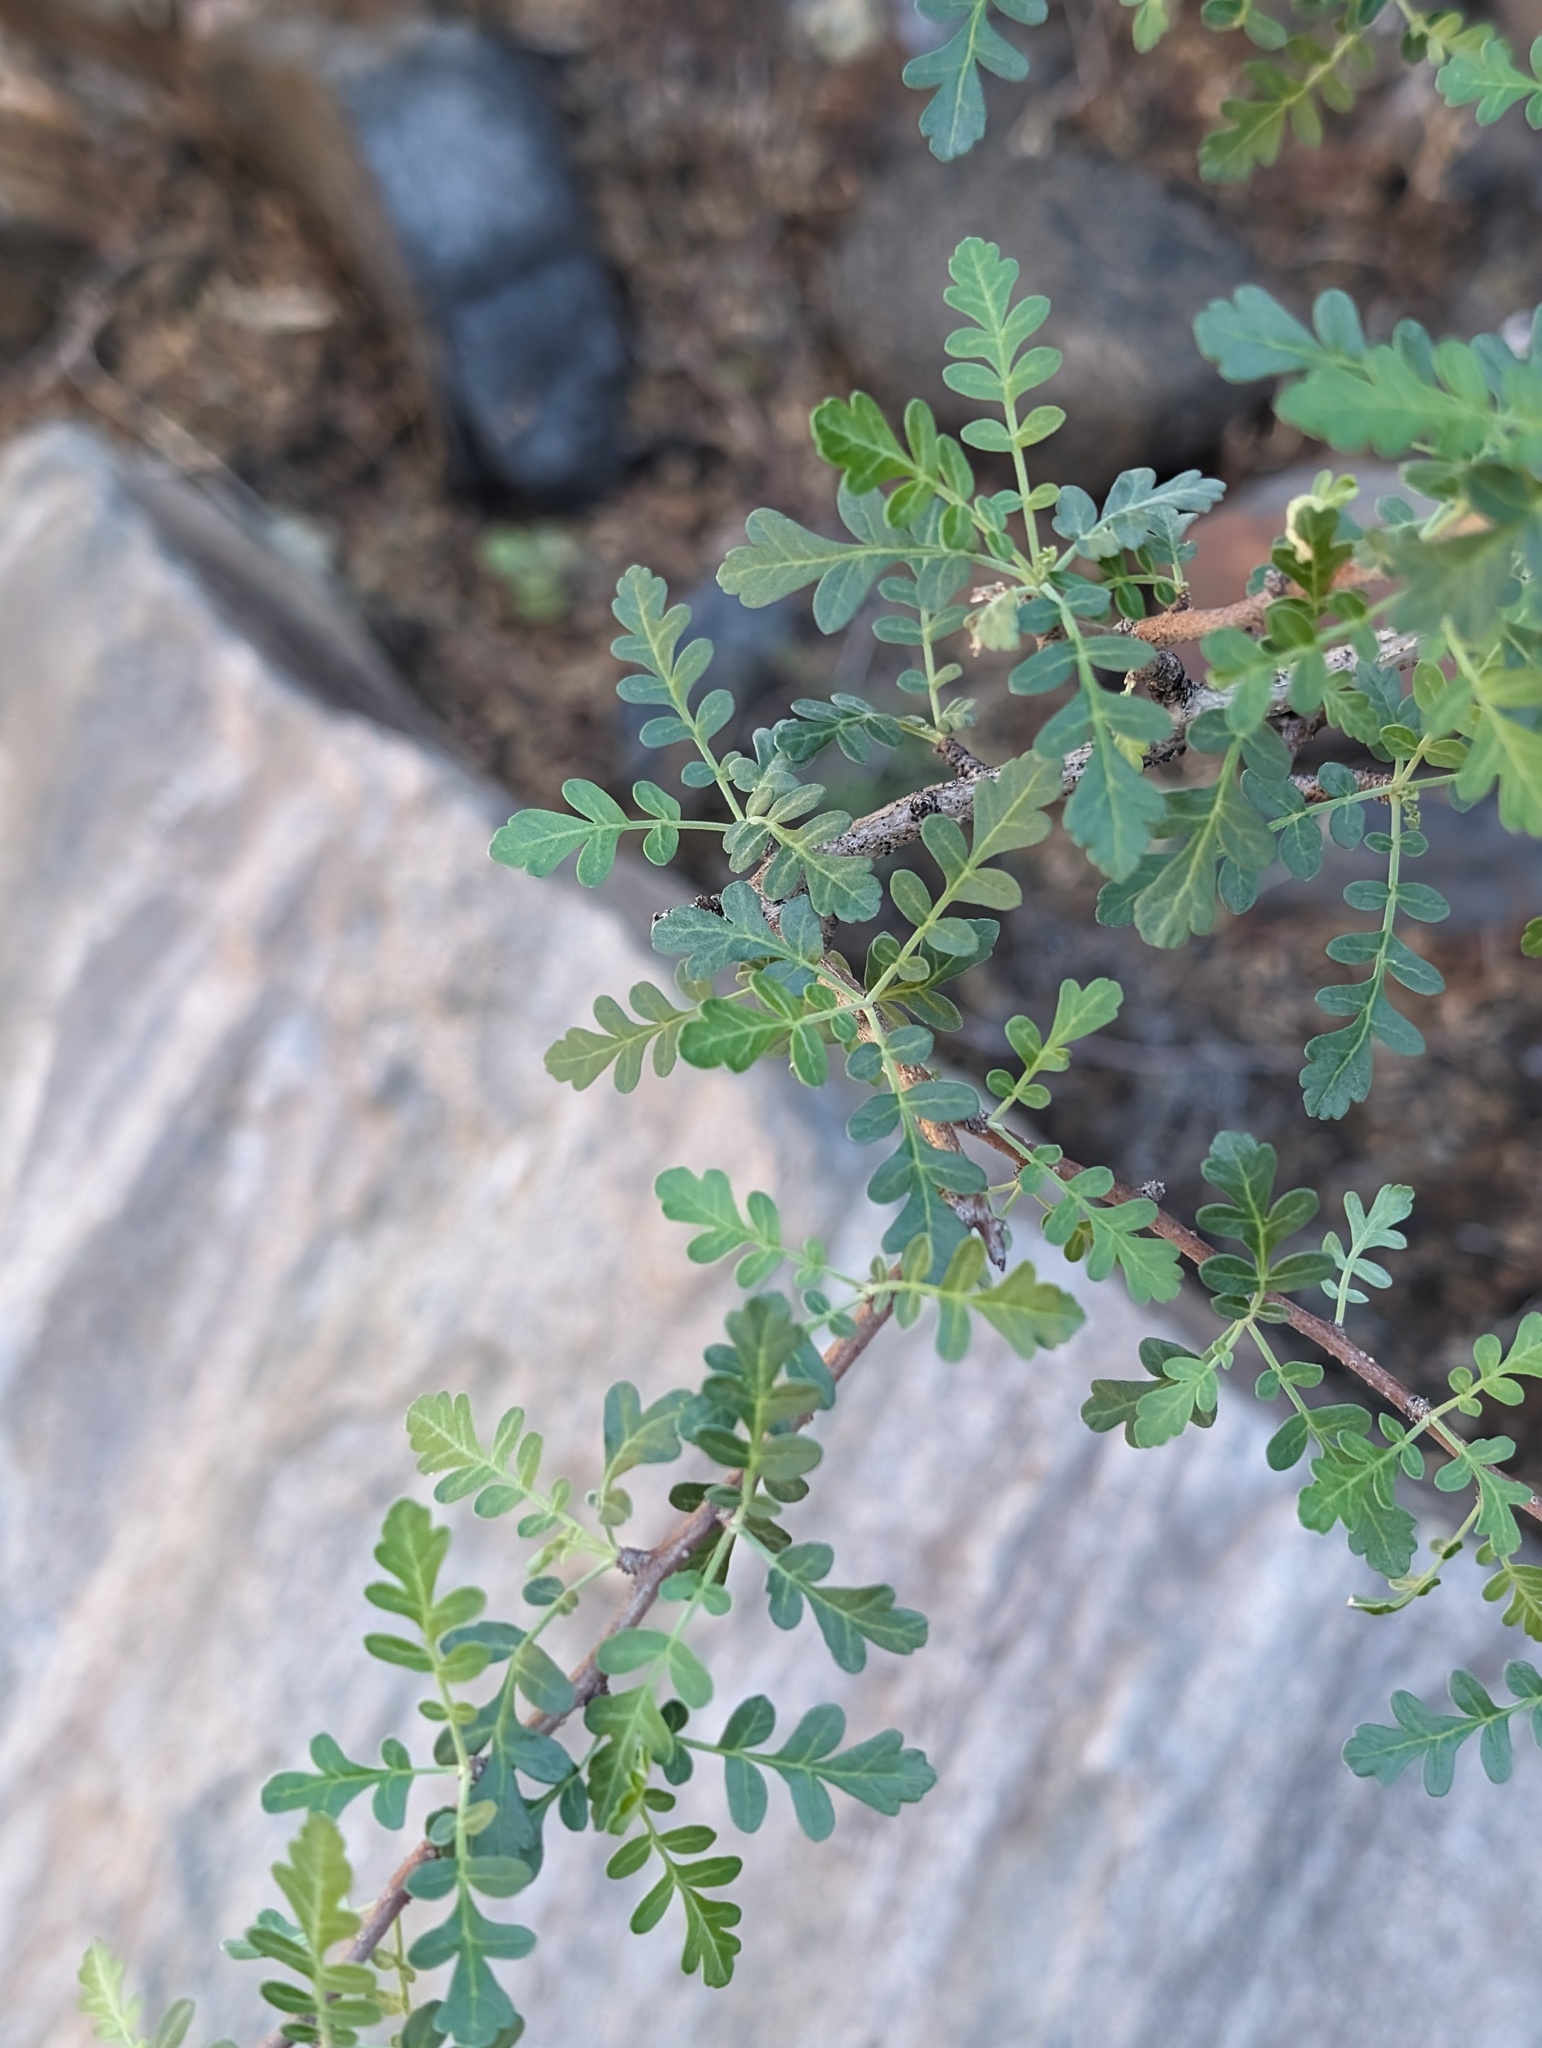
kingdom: Plantae
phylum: Tracheophyta
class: Magnoliopsida
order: Sapindales
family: Anacardiaceae
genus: Pachycormus
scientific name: Pachycormus discolor
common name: Succulent elephant trees
